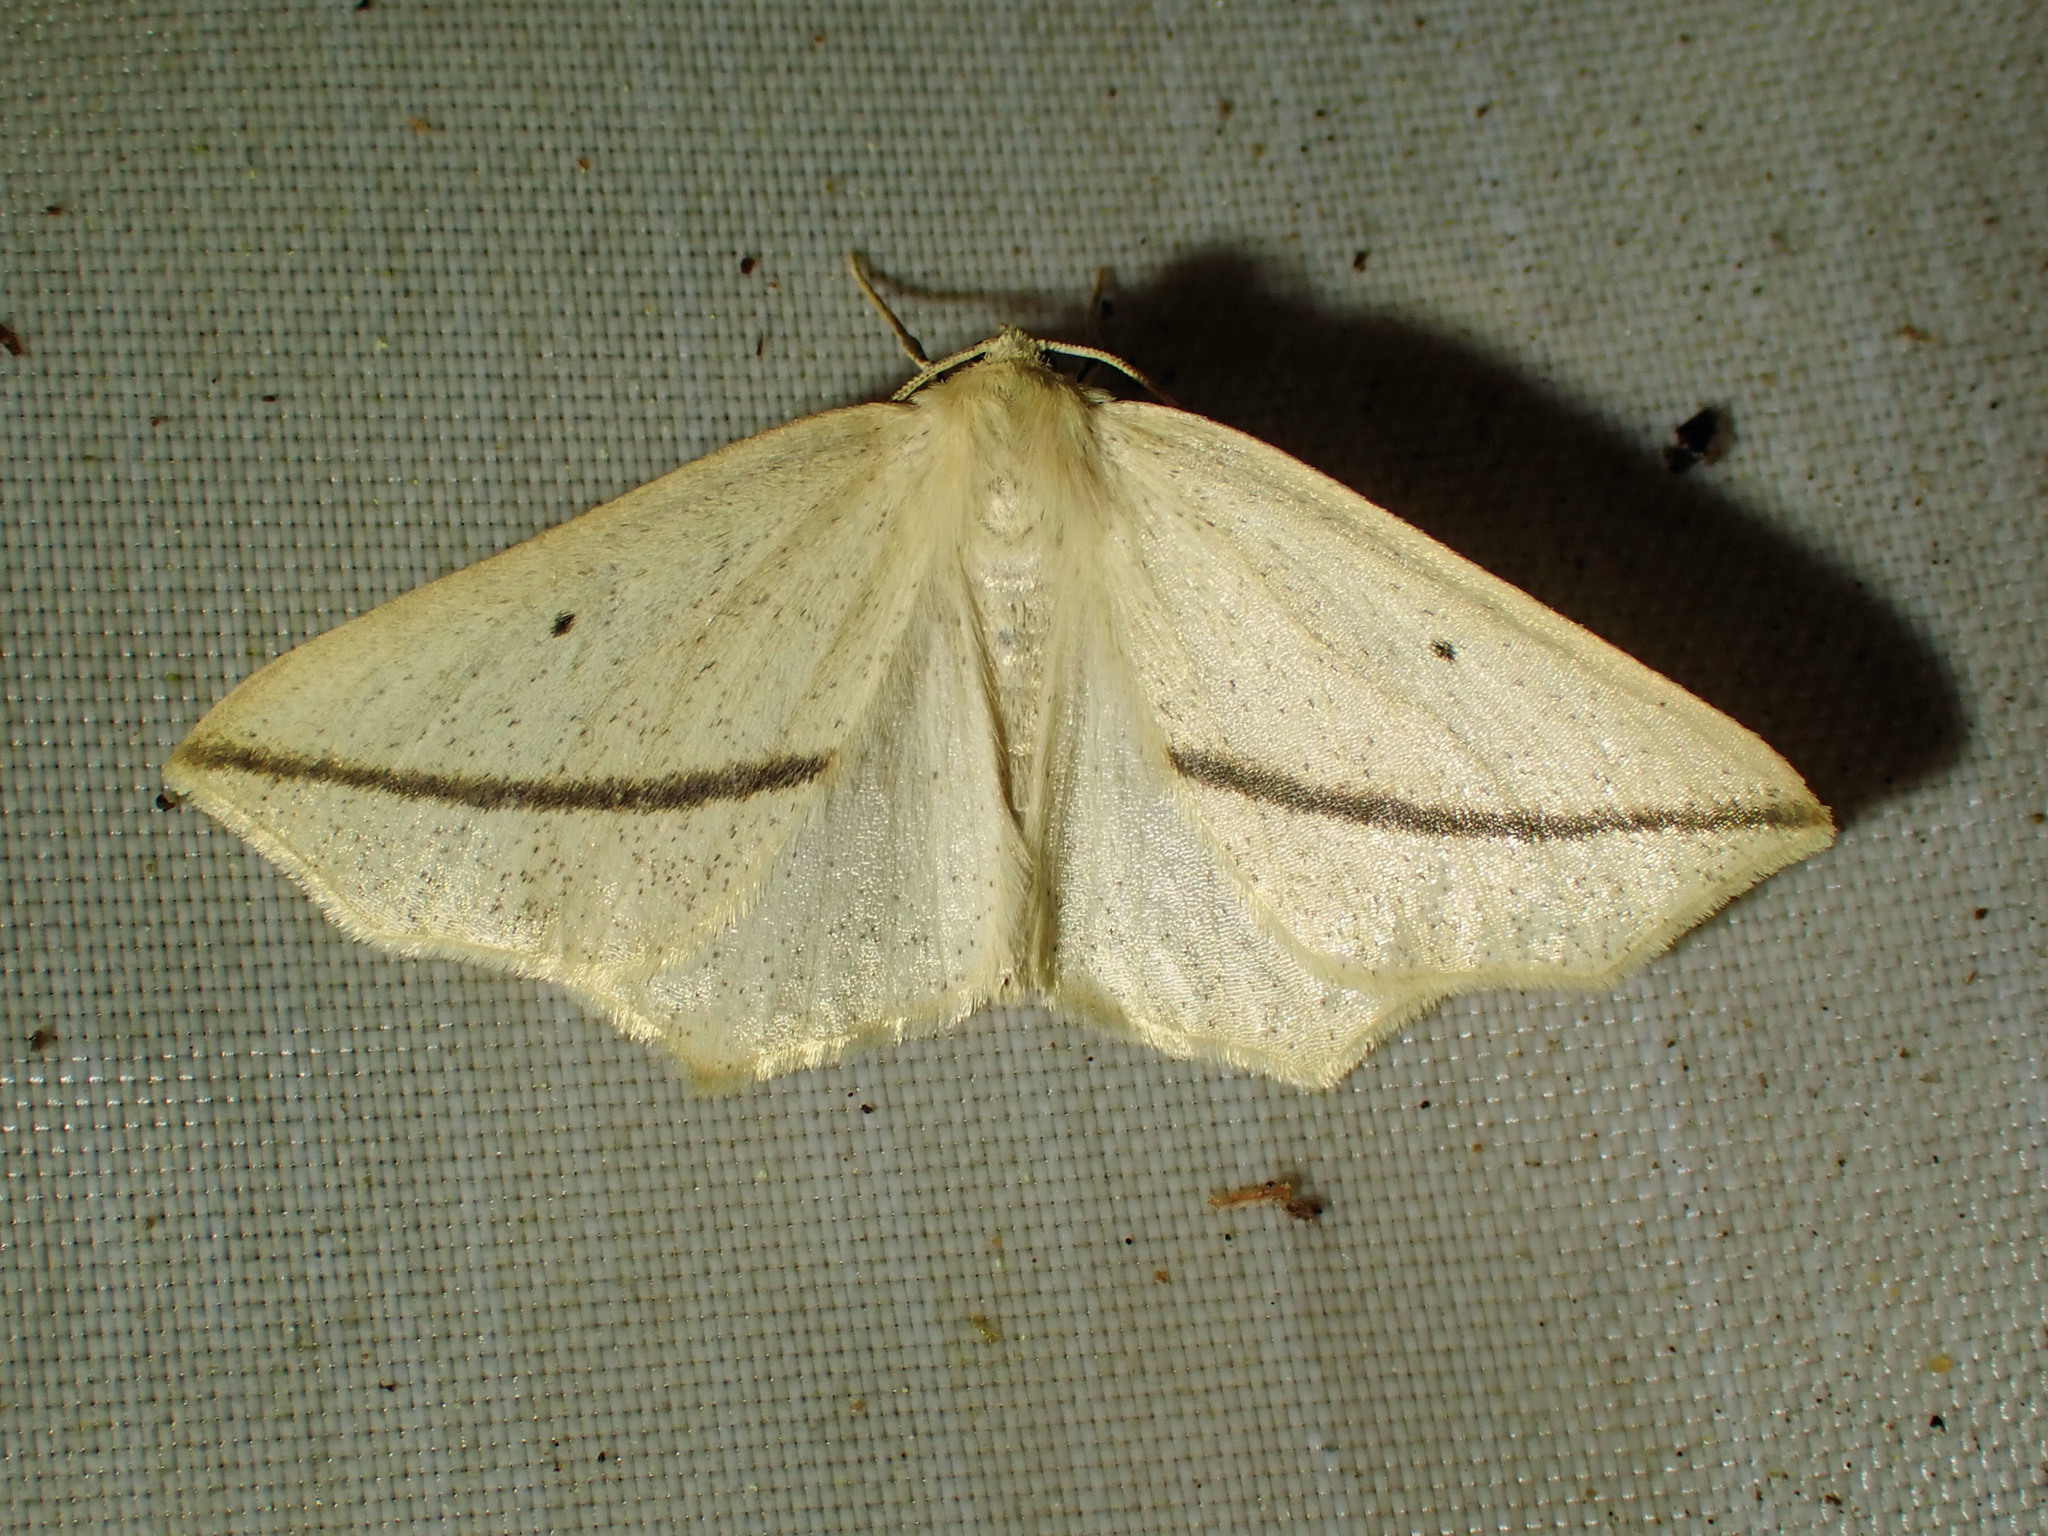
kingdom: Animalia
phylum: Arthropoda
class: Insecta
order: Lepidoptera
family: Geometridae
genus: Tetracis
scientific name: Tetracis crocallata
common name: Yellow slant-line
